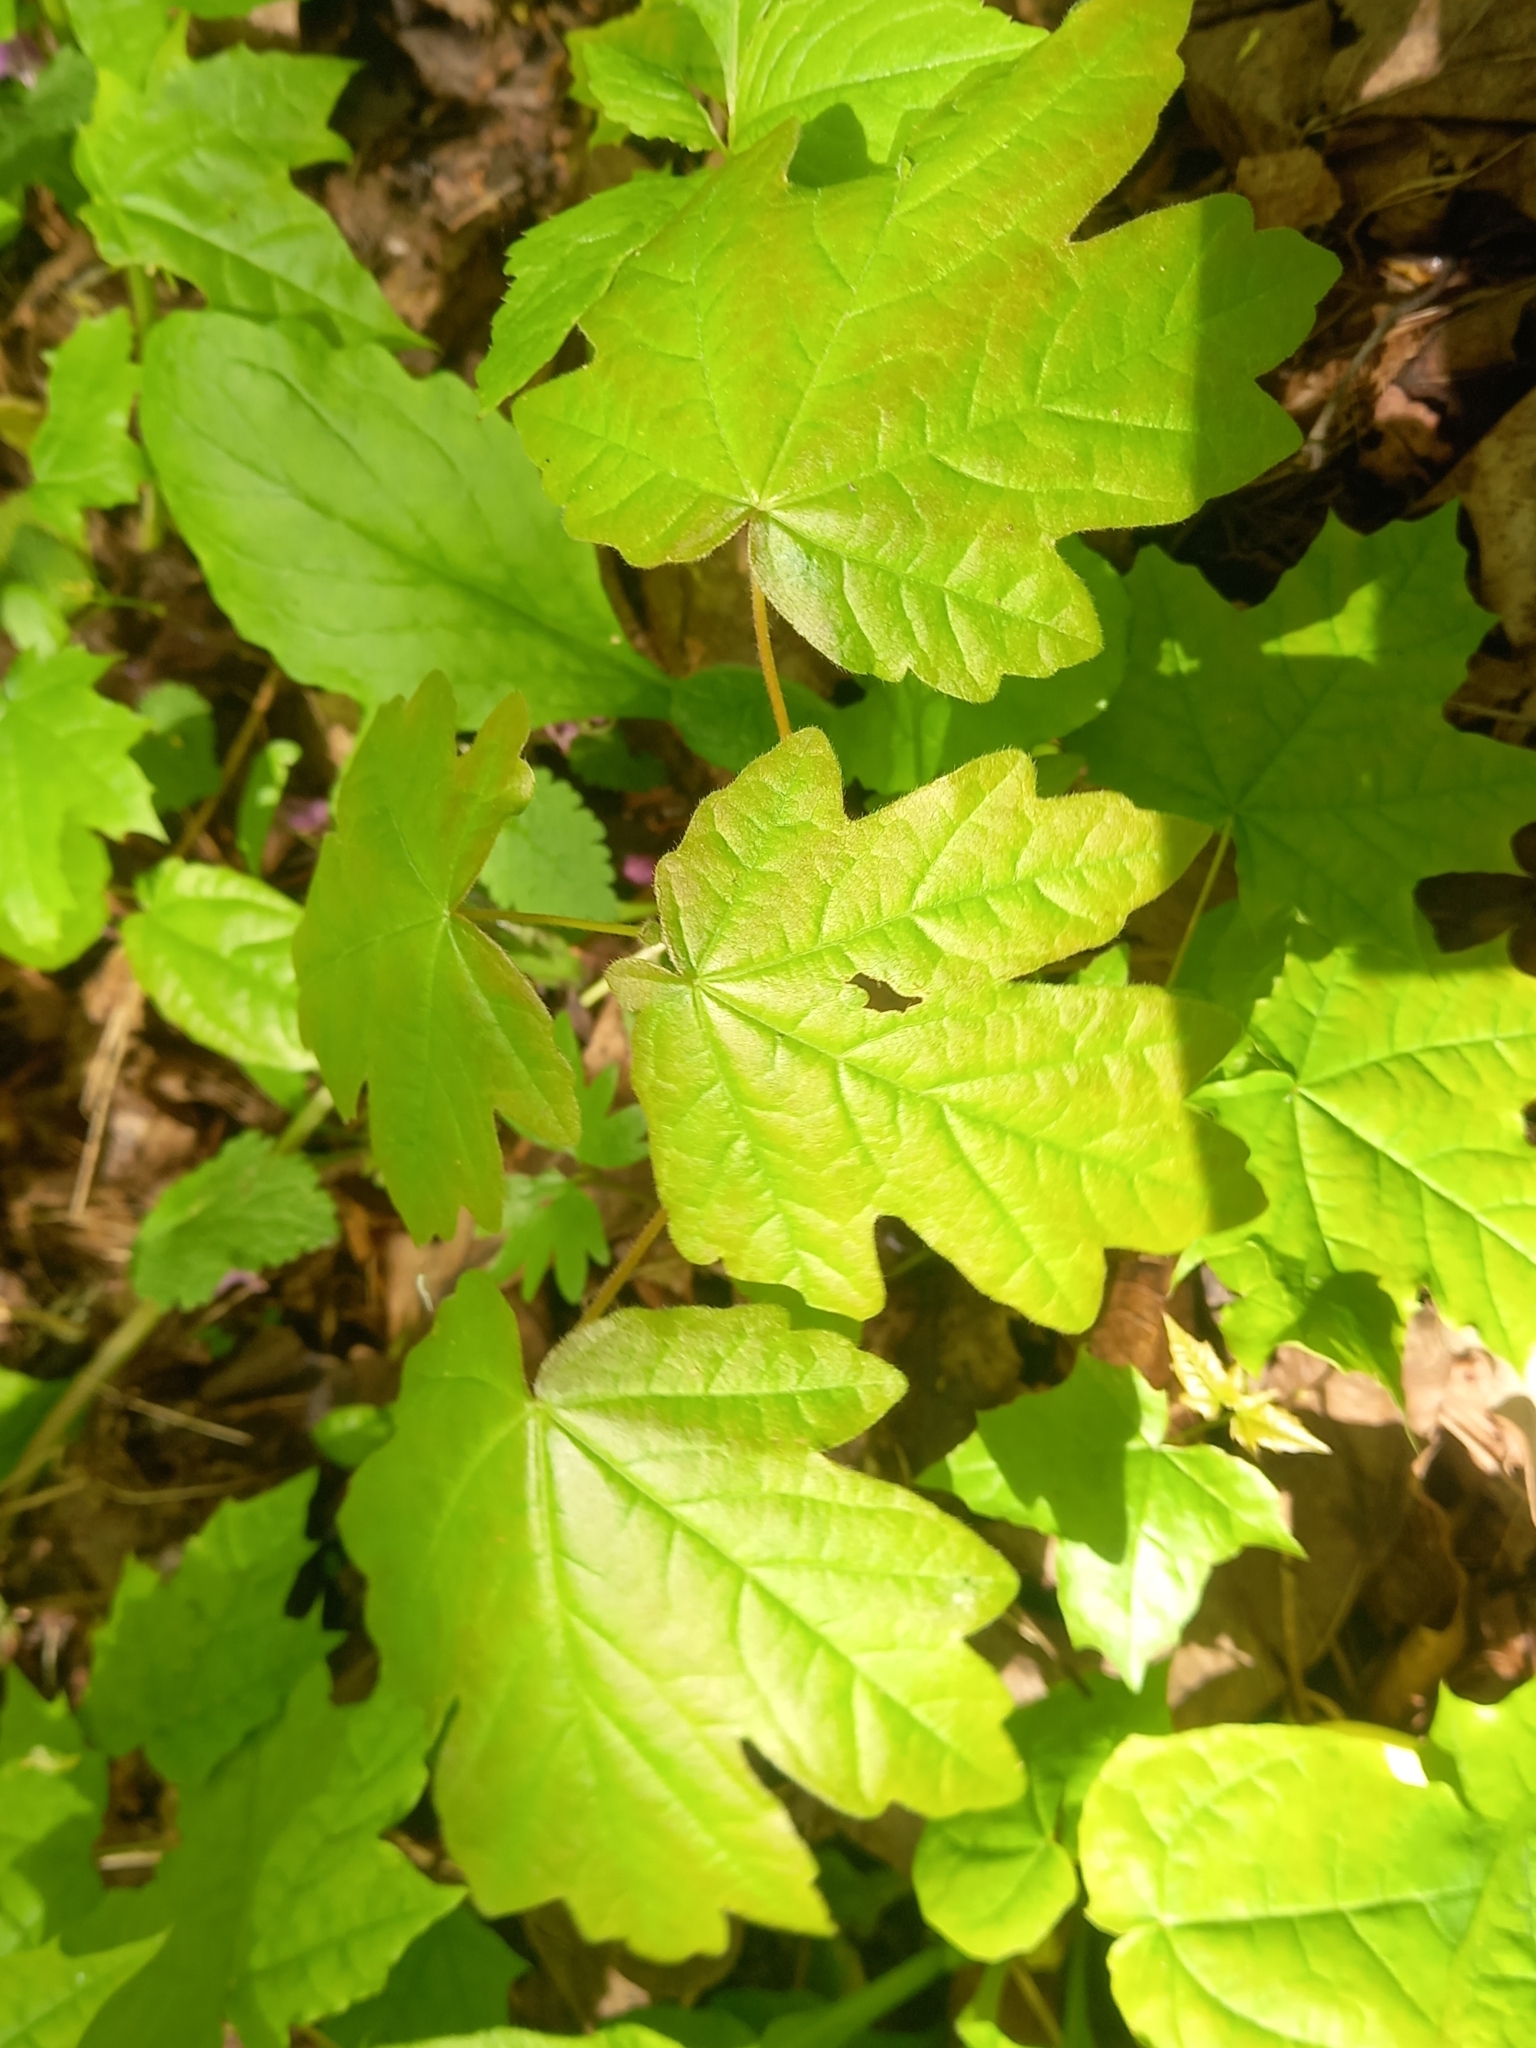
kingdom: Plantae
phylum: Tracheophyta
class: Magnoliopsida
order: Sapindales
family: Sapindaceae
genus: Acer
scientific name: Acer campestre
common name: Field maple
